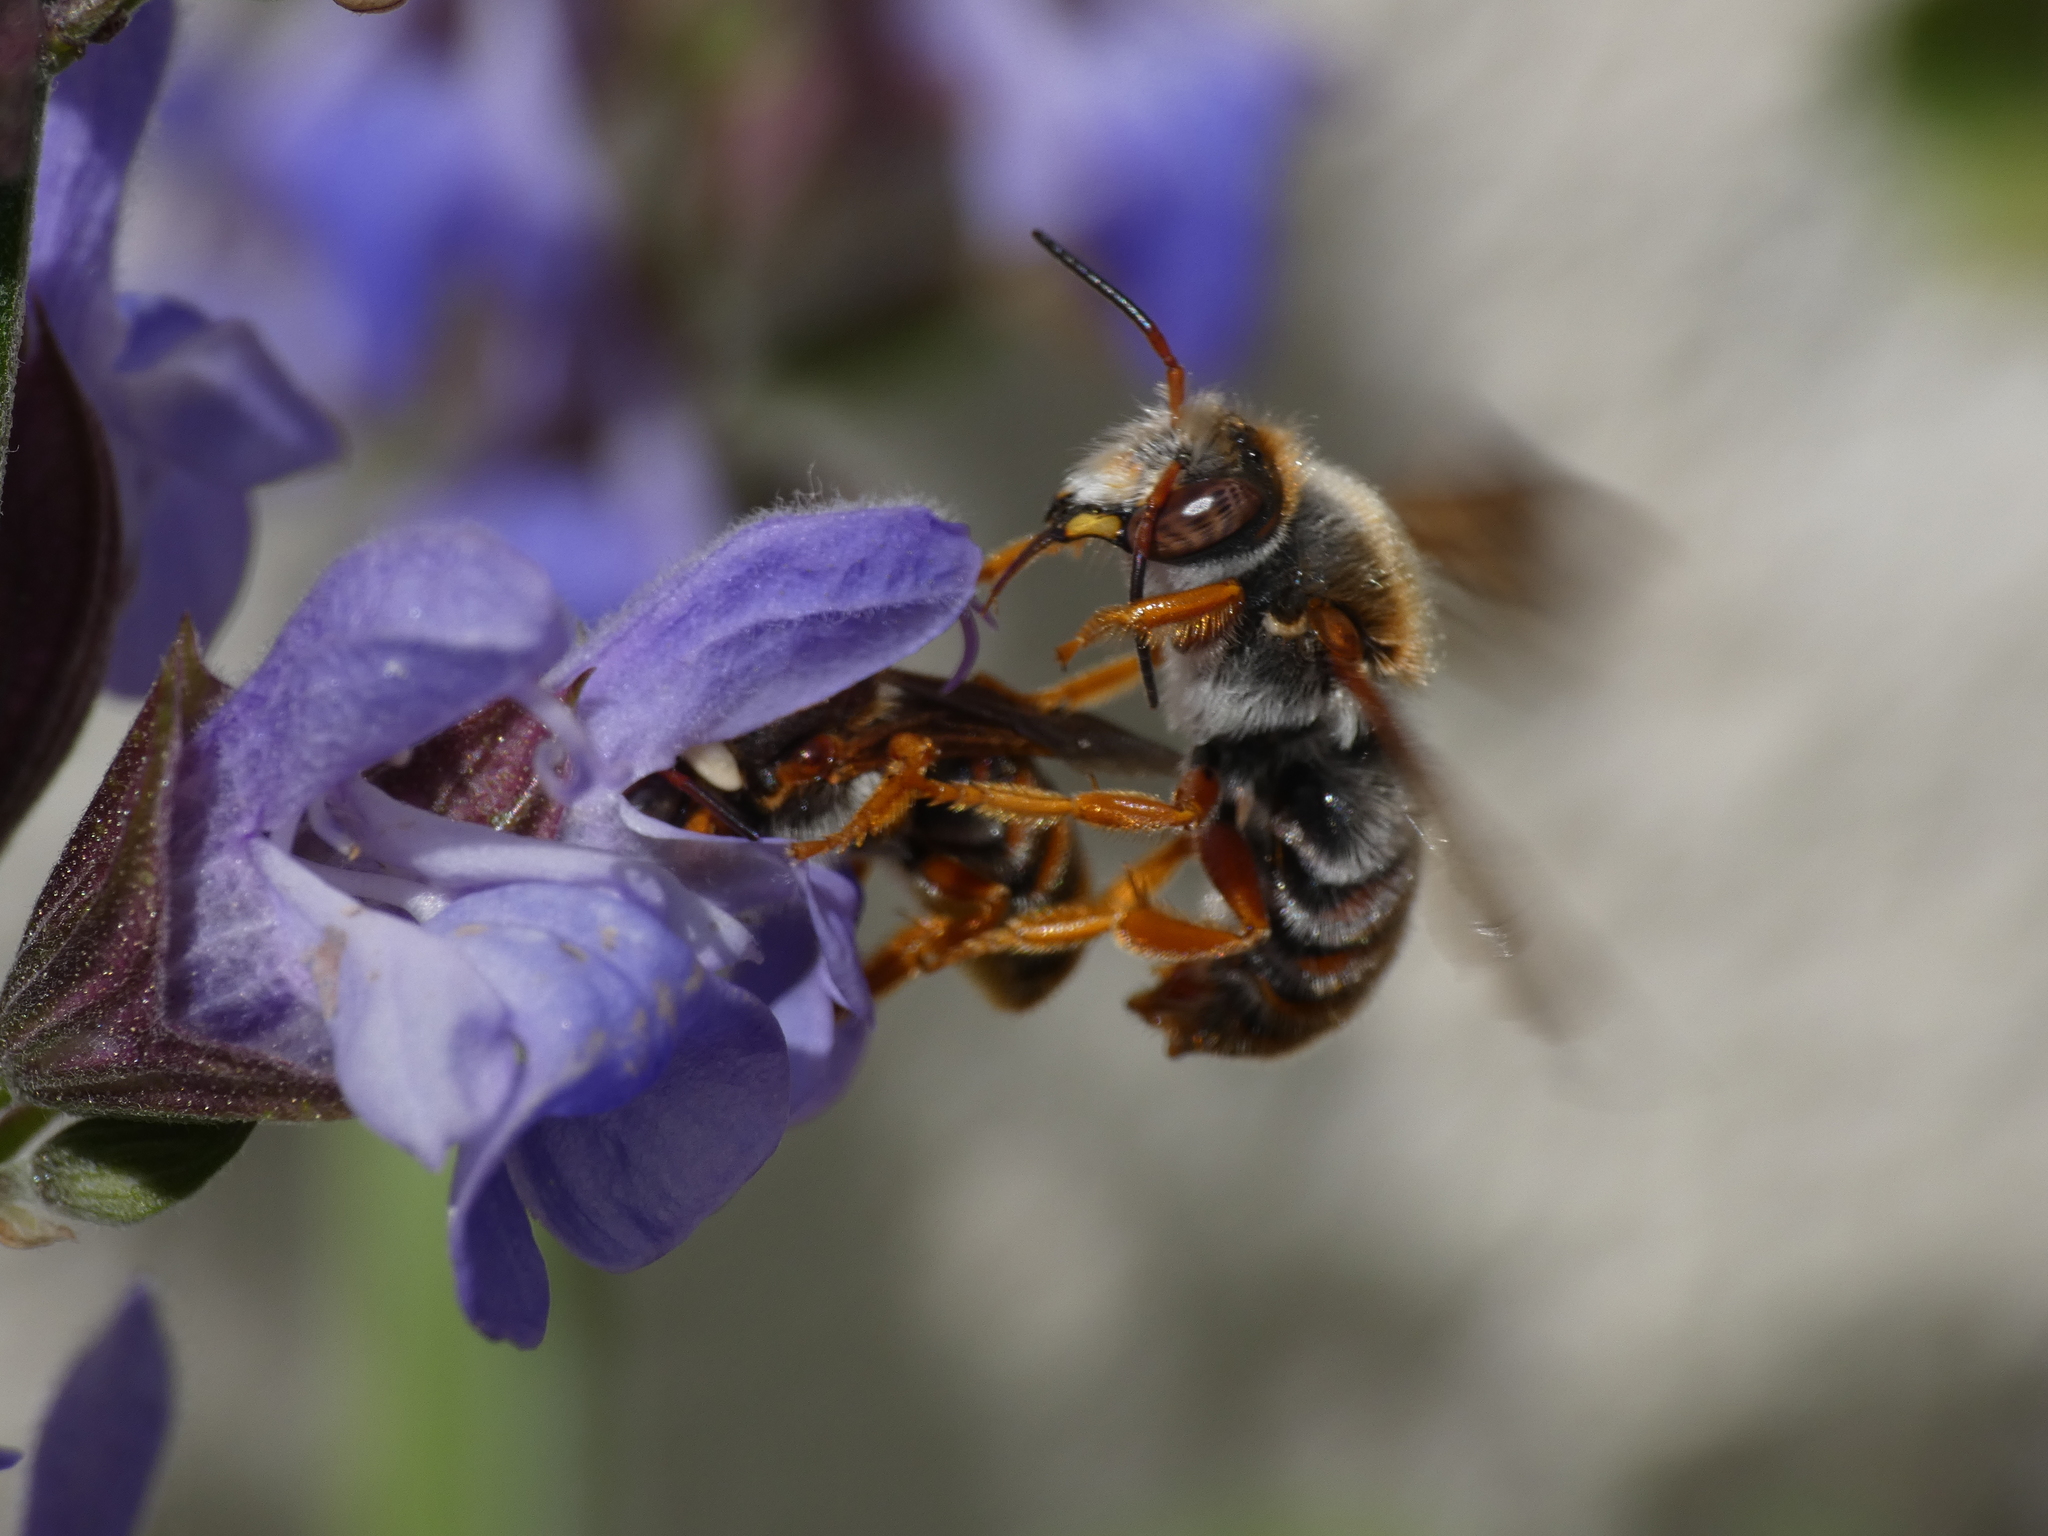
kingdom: Animalia
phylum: Arthropoda
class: Insecta
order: Hymenoptera
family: Megachilidae
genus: Rhodanthidium
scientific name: Rhodanthidium sticticum
